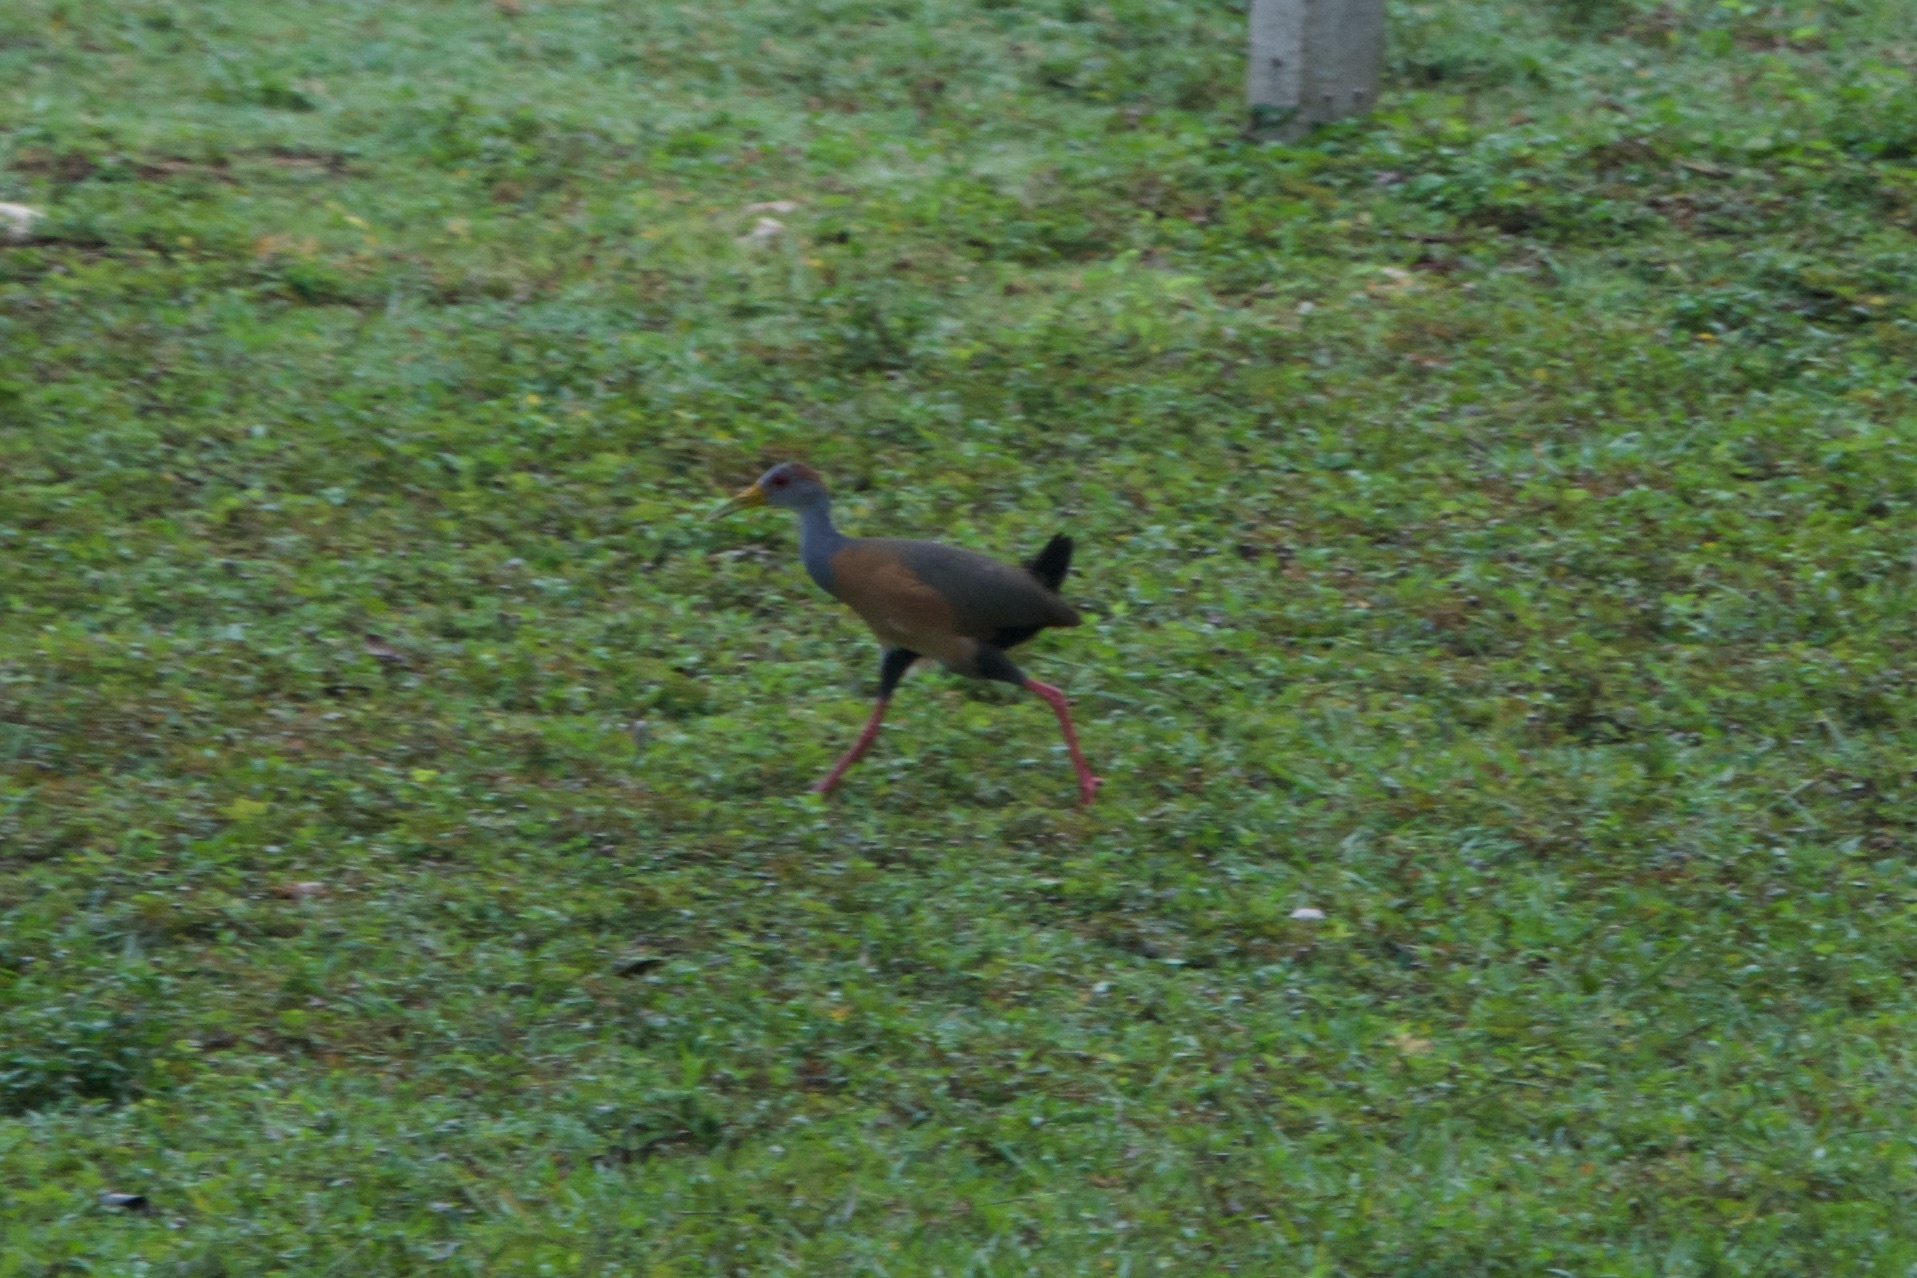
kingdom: Animalia
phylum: Chordata
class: Aves
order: Gruiformes
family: Rallidae
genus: Aramides
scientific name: Aramides albiventris
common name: Russet-naped wood-rail
